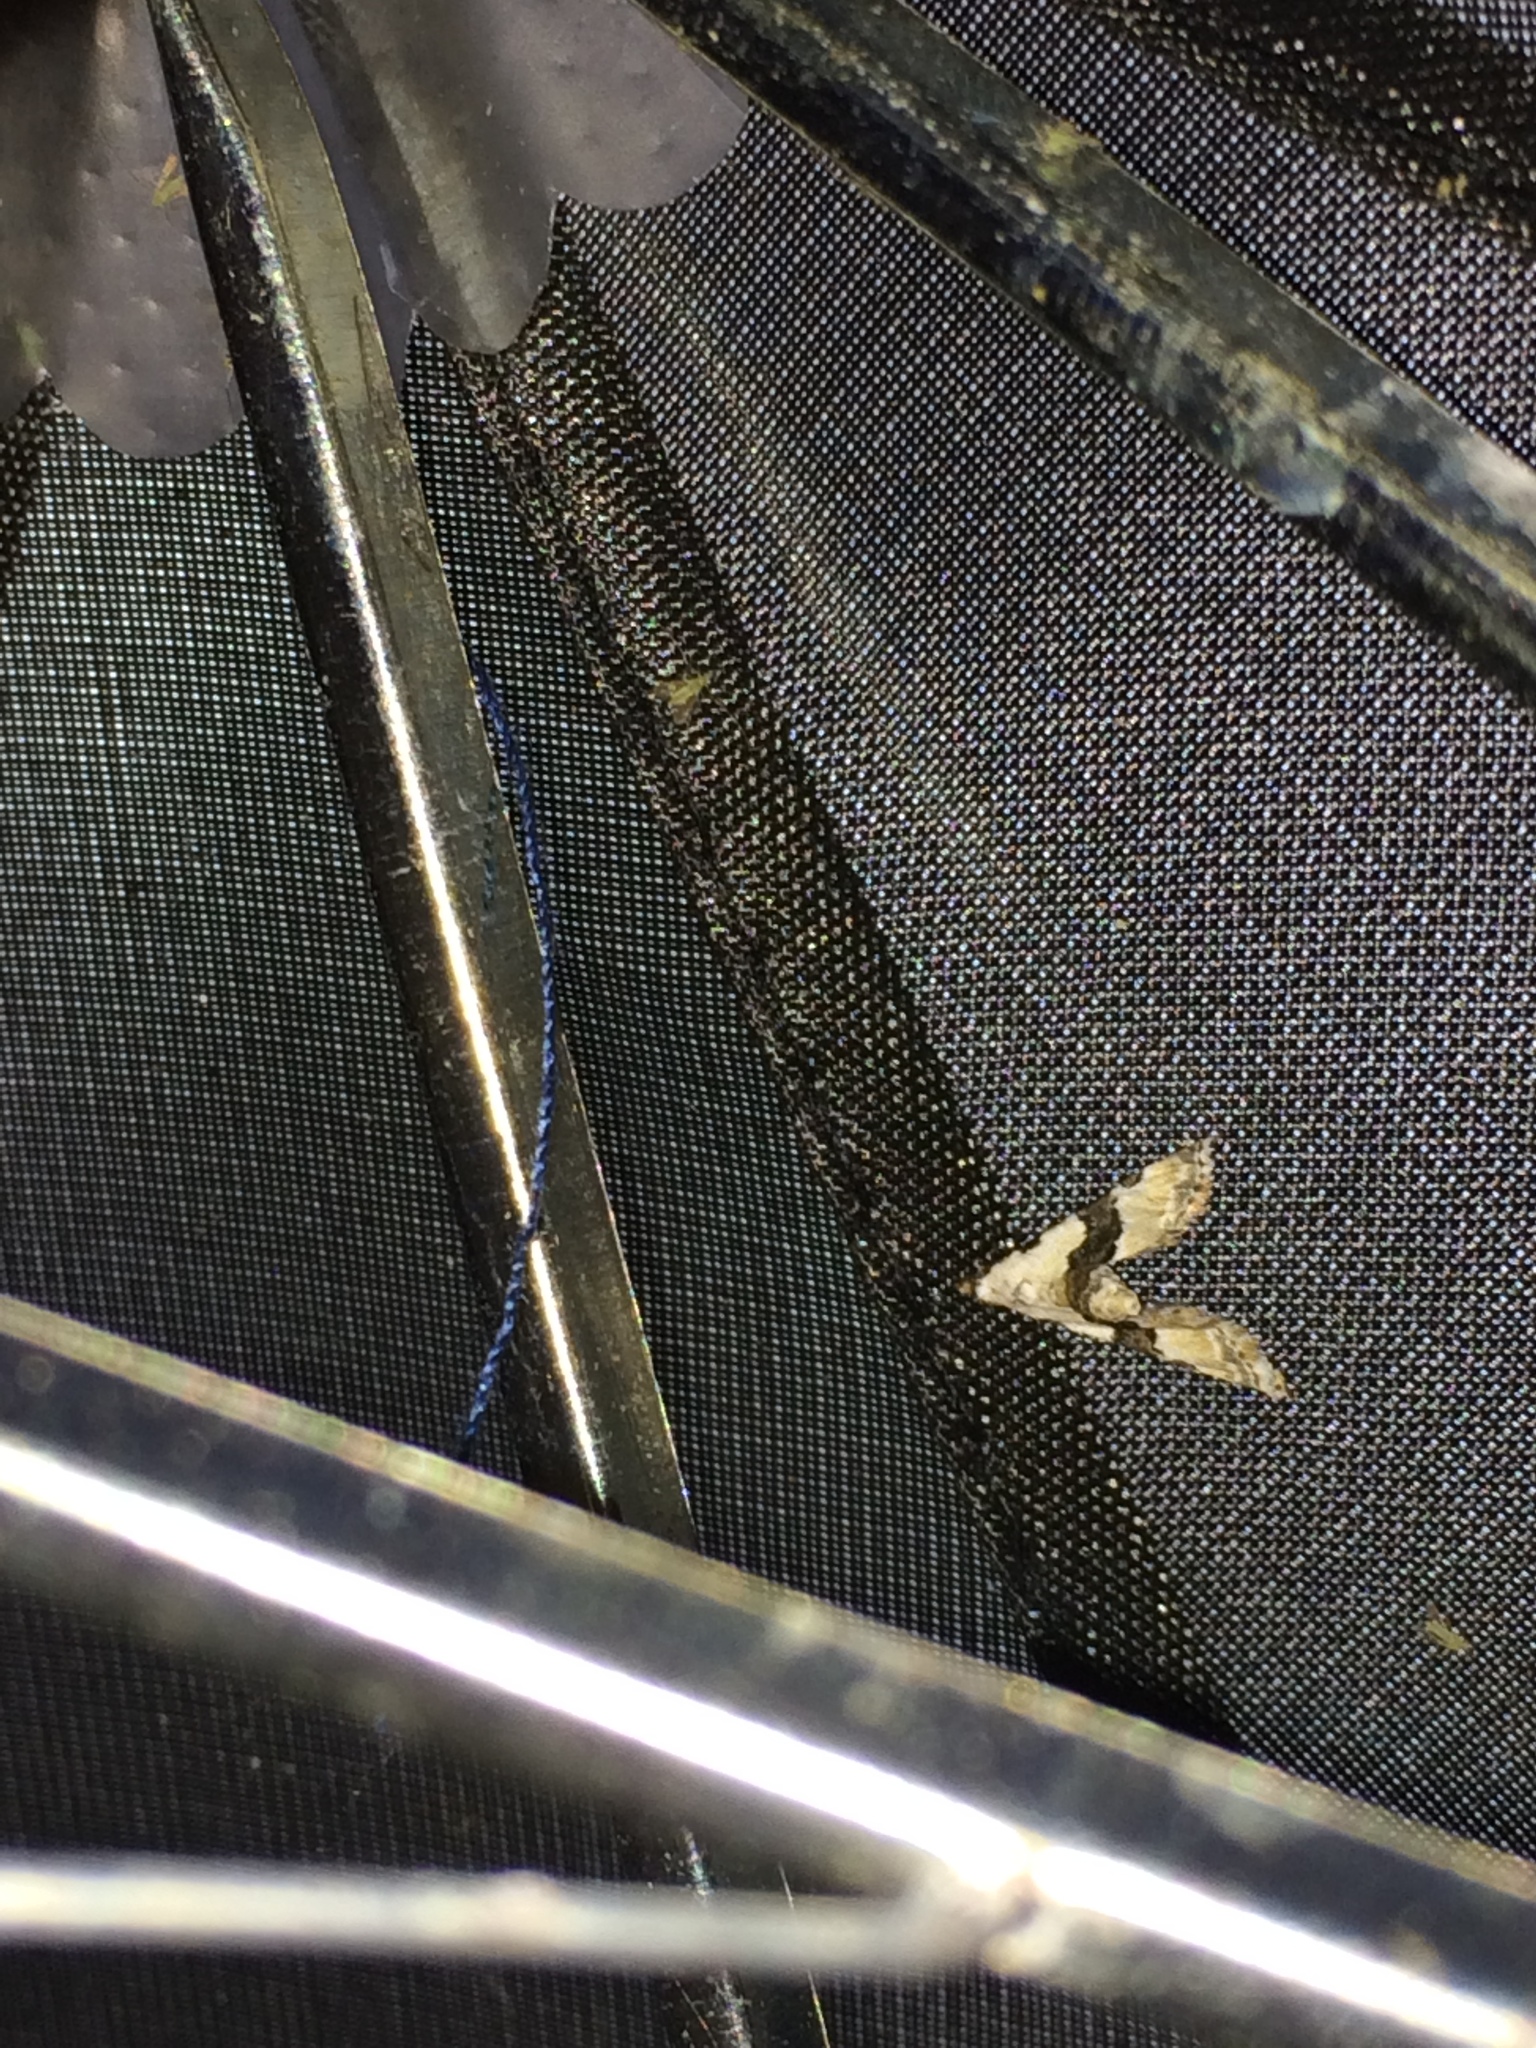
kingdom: Animalia
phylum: Arthropoda
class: Insecta
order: Lepidoptera
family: Noctuidae
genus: Nigetia
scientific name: Nigetia formosalis
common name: Thin-winged owlet
